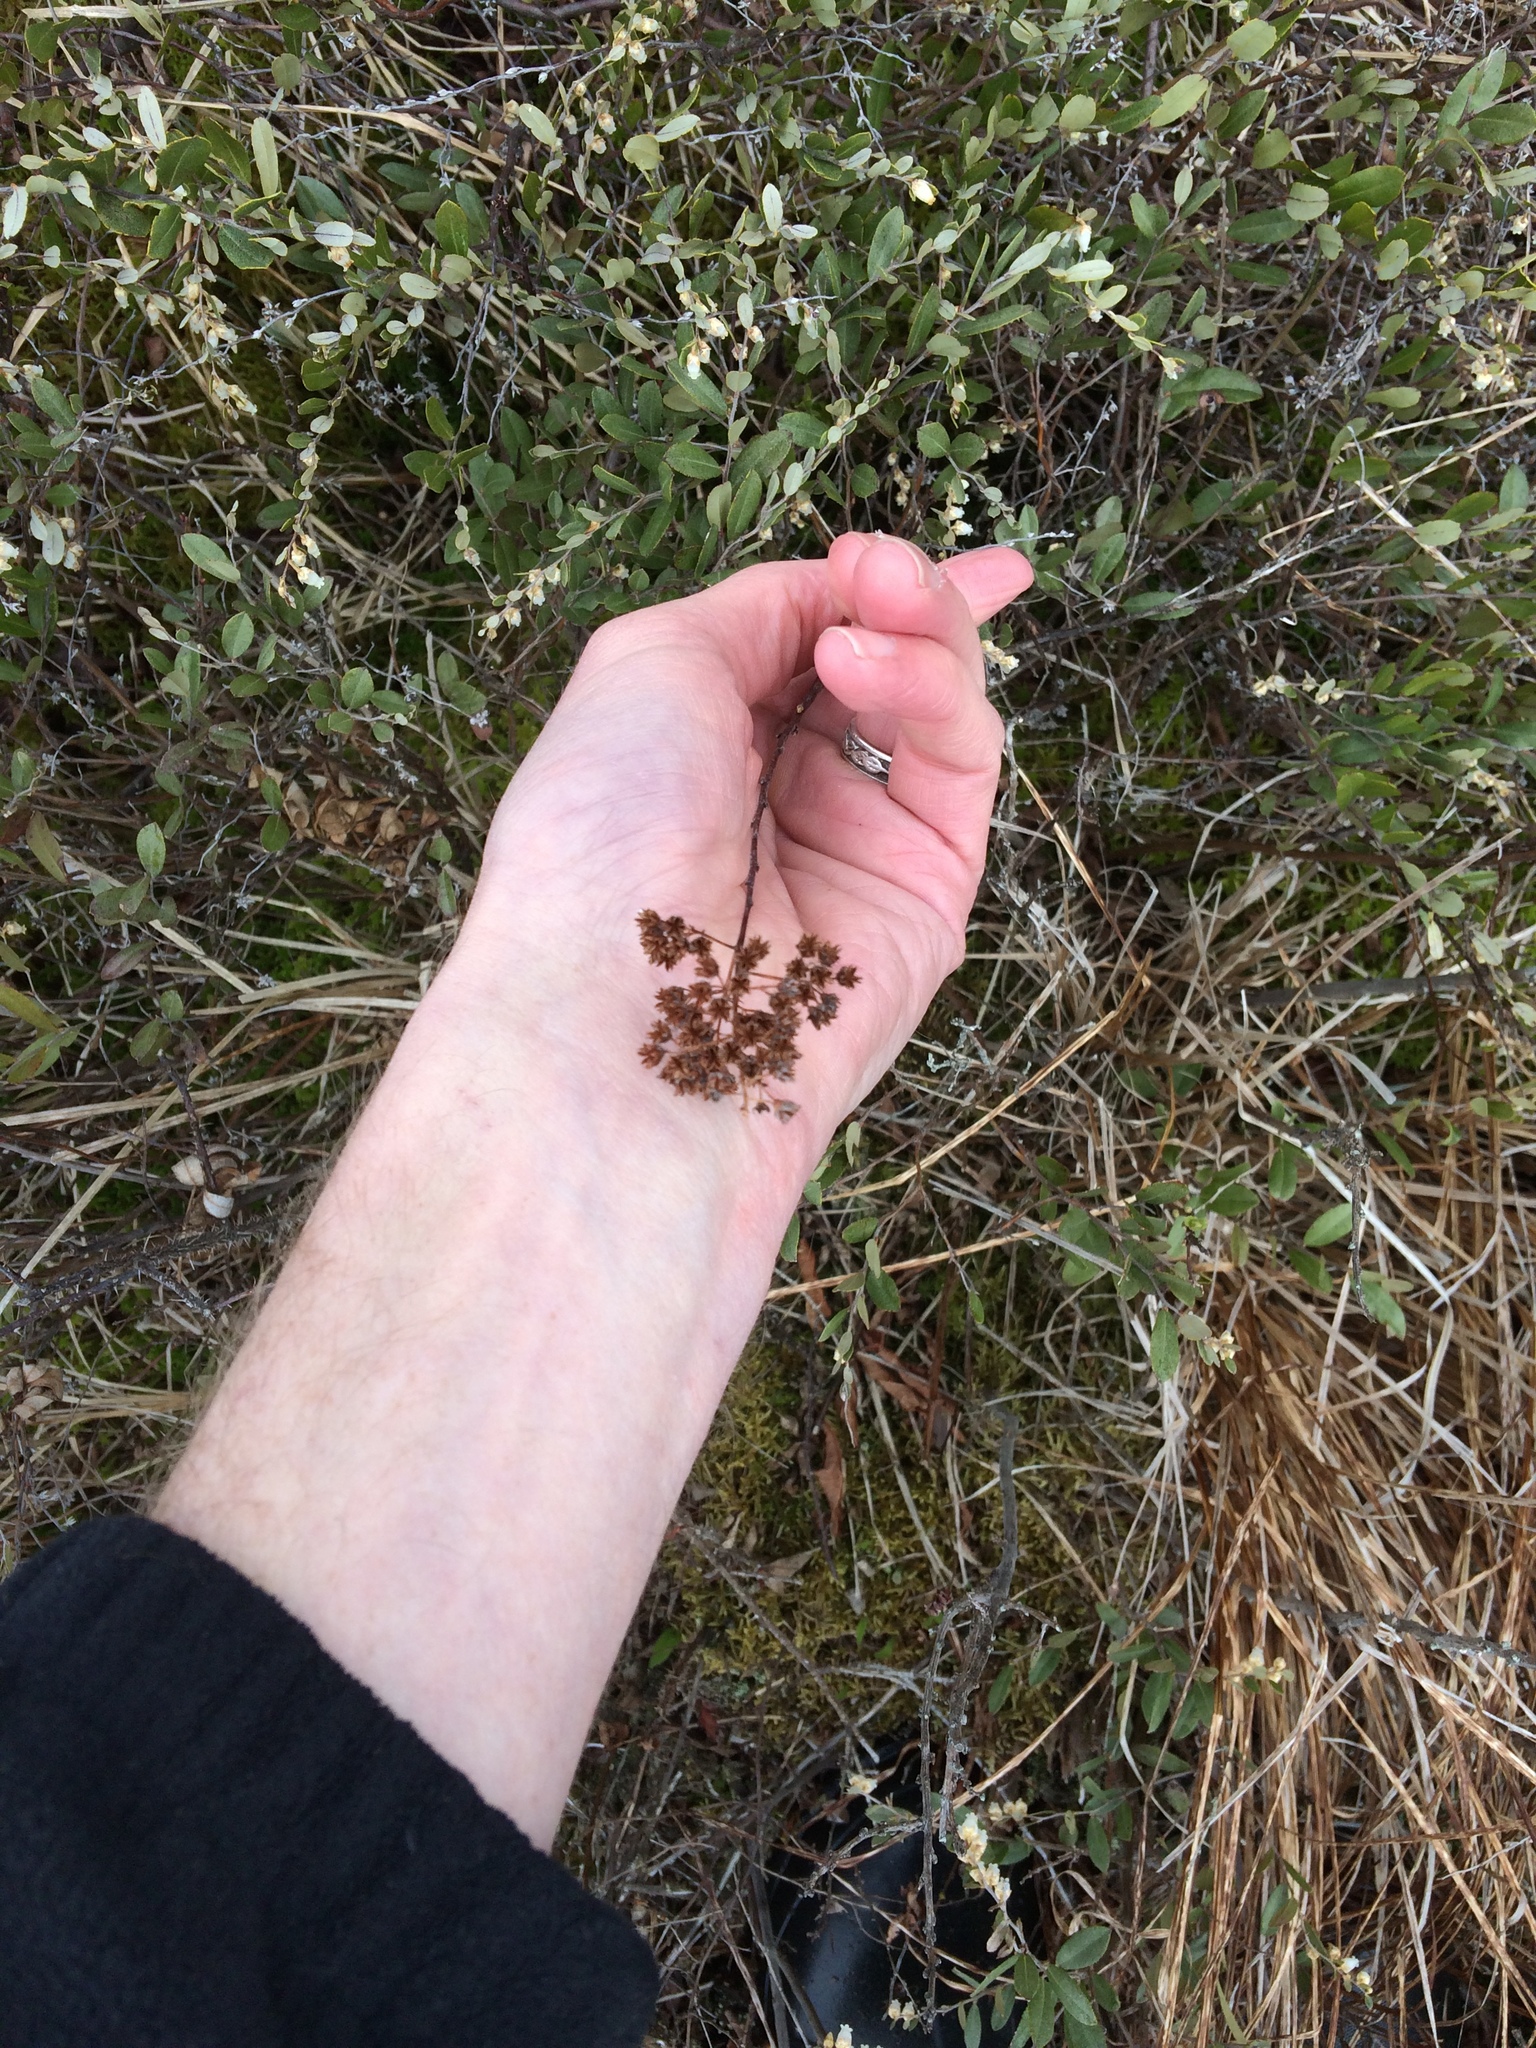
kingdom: Plantae
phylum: Tracheophyta
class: Magnoliopsida
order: Rosales
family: Rosaceae
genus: Spiraea
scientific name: Spiraea alba
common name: Pale bridewort
